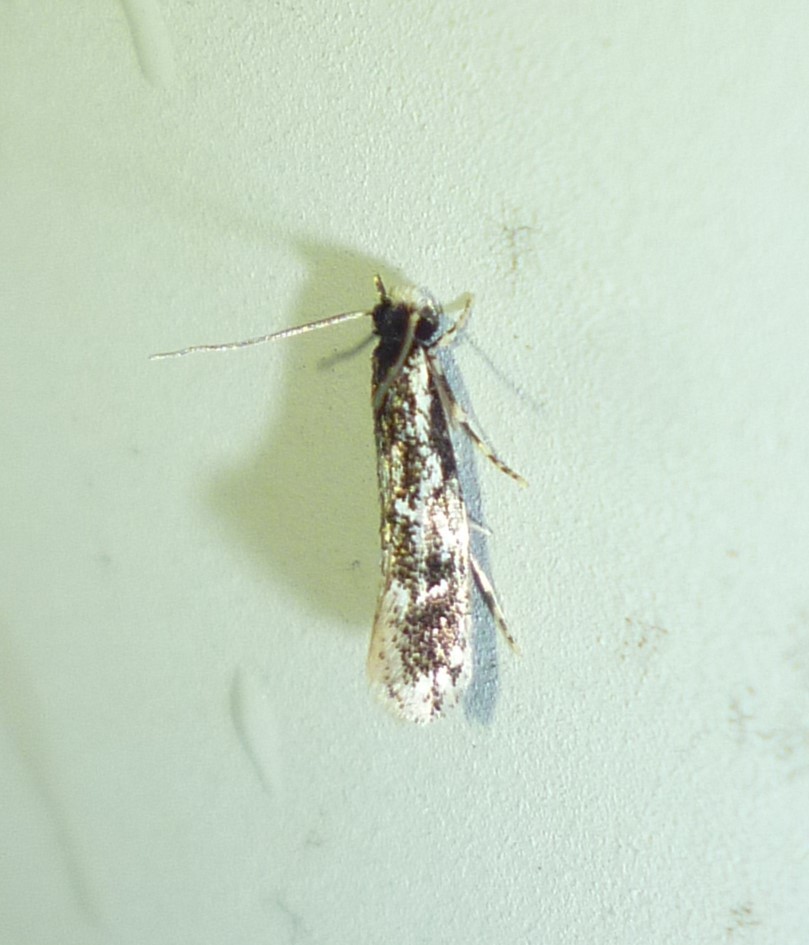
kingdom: Animalia
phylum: Arthropoda
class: Insecta
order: Lepidoptera
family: Meessiidae
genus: Leucomele
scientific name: Leucomele miriamella
